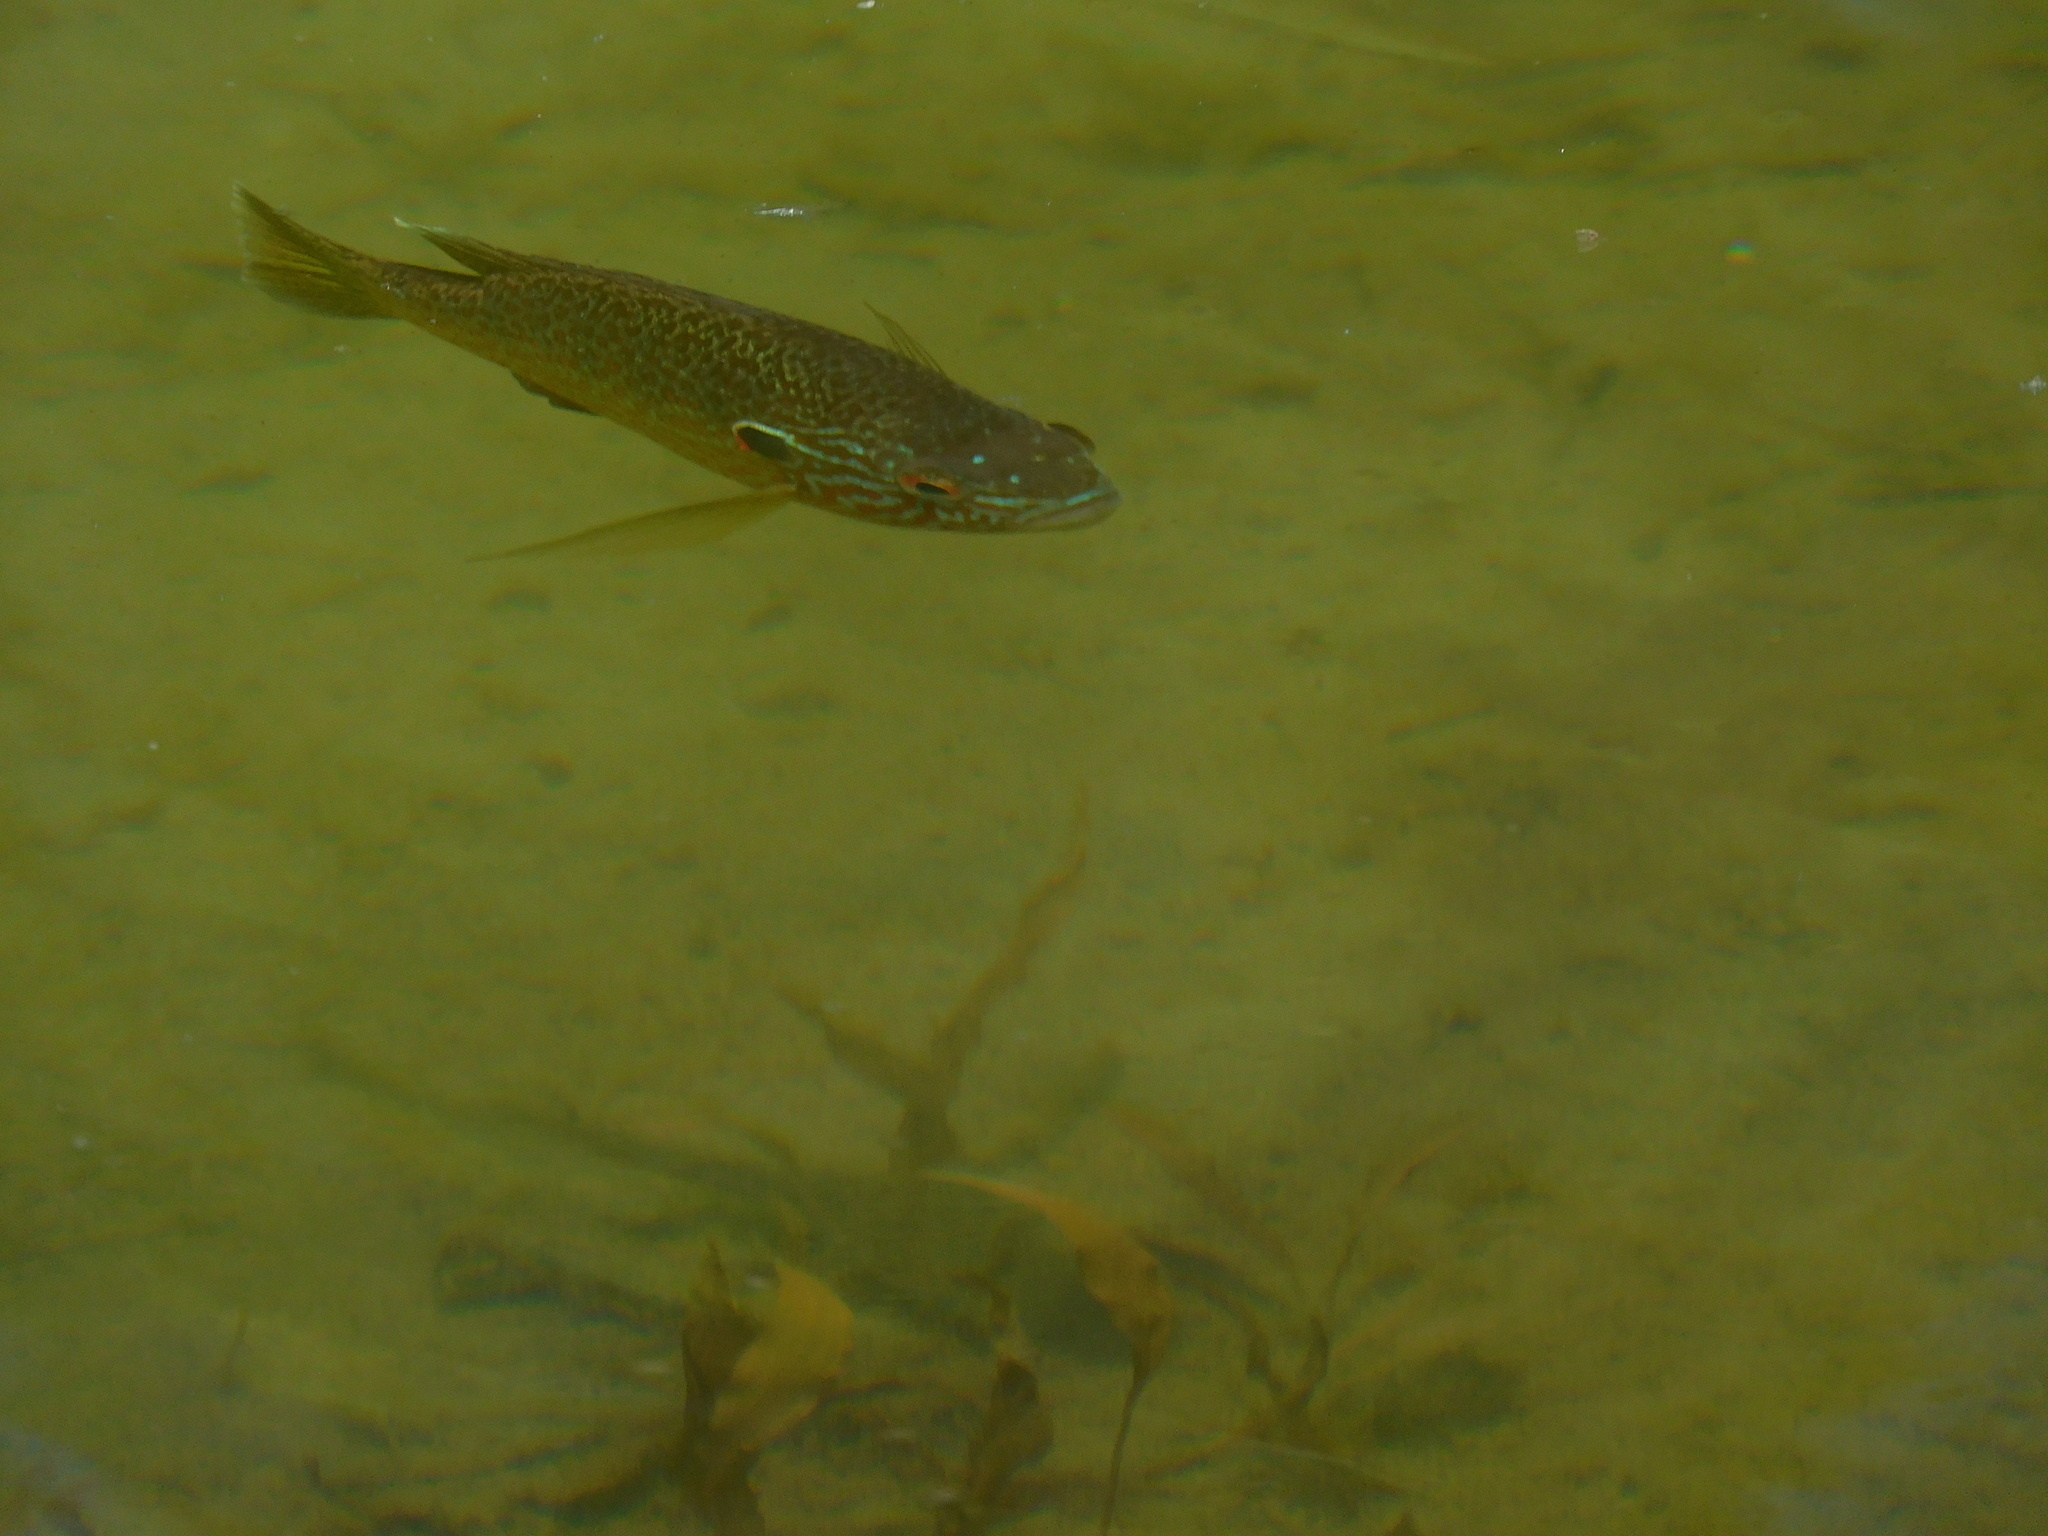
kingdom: Animalia
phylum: Chordata
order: Perciformes
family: Centrarchidae
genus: Lepomis
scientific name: Lepomis gibbosus
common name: Pumpkinseed
